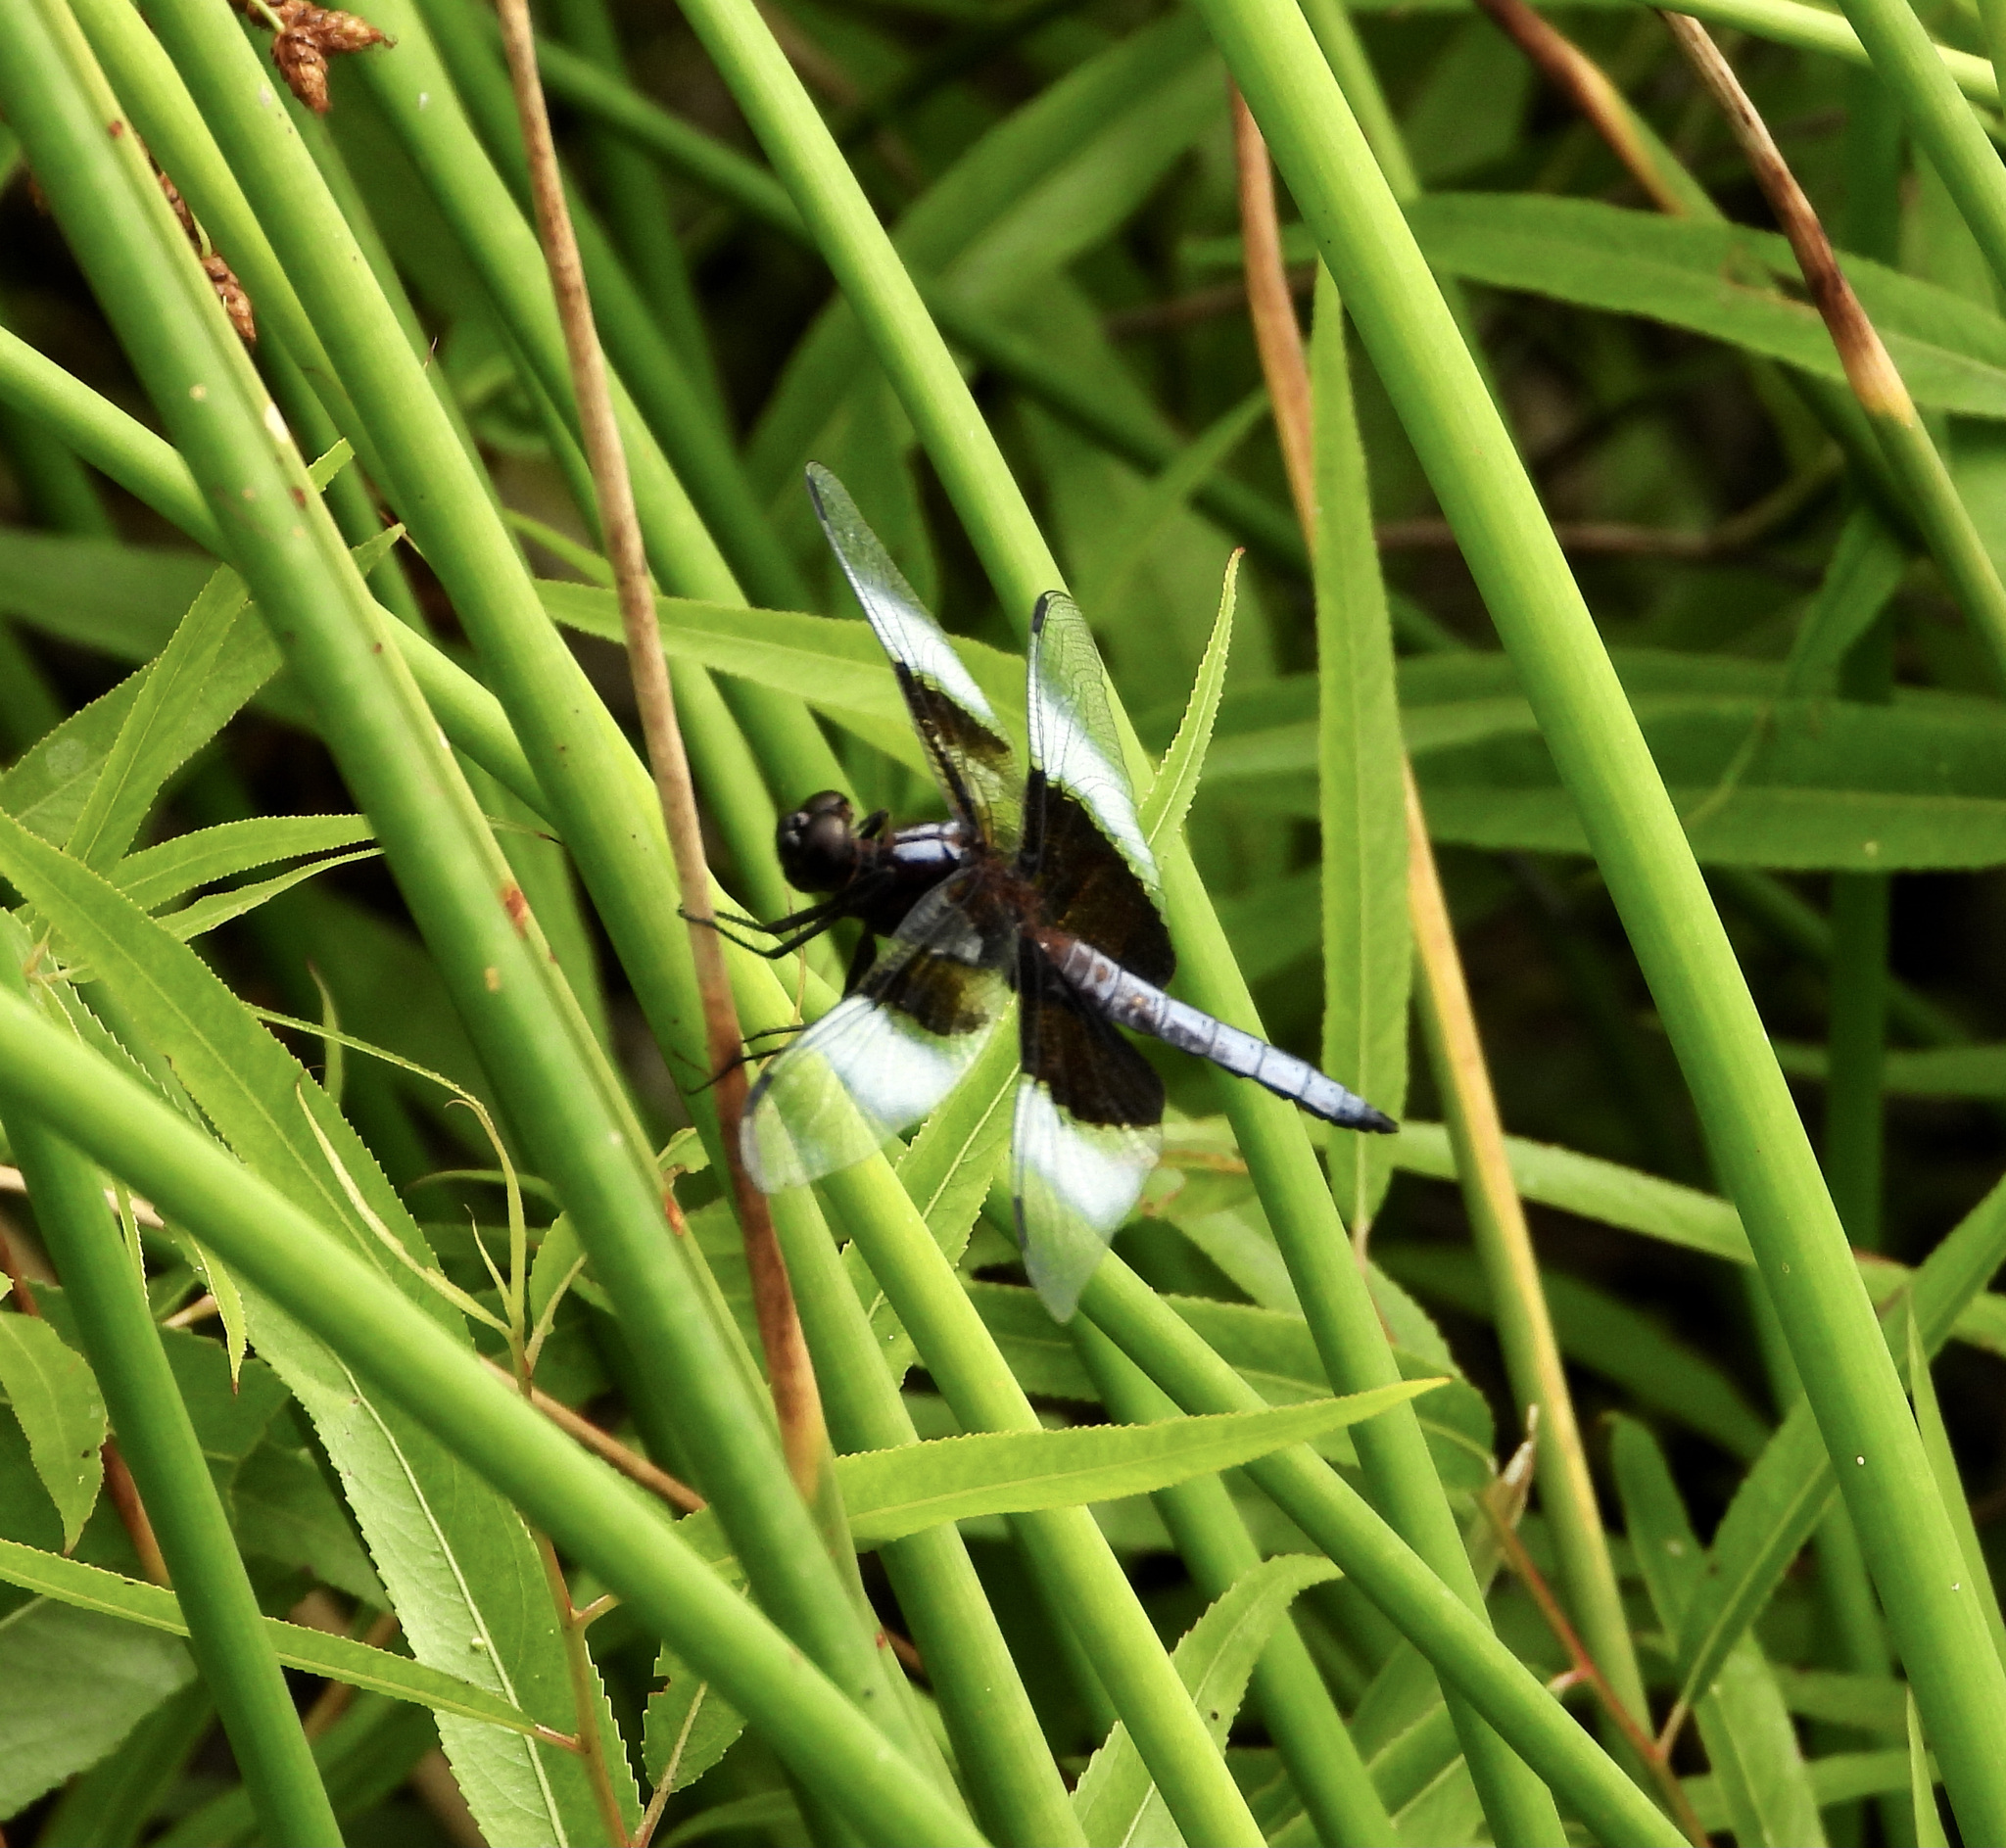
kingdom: Animalia
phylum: Arthropoda
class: Insecta
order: Odonata
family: Libellulidae
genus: Libellula
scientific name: Libellula luctuosa
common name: Widow skimmer
